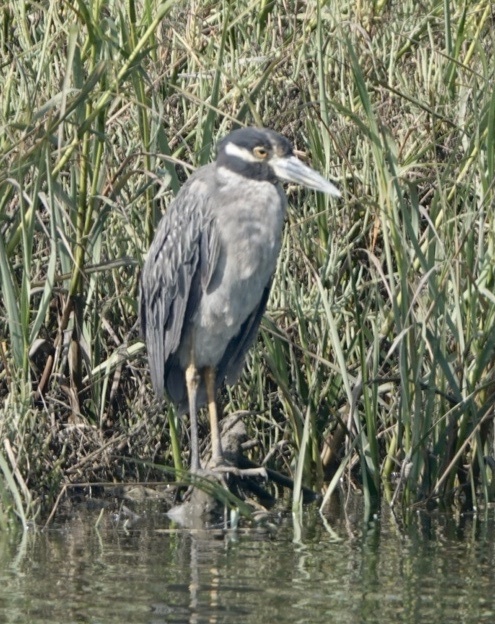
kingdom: Animalia
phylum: Chordata
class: Aves
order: Pelecaniformes
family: Ardeidae
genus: Nyctanassa
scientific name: Nyctanassa violacea
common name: Yellow-crowned night heron
